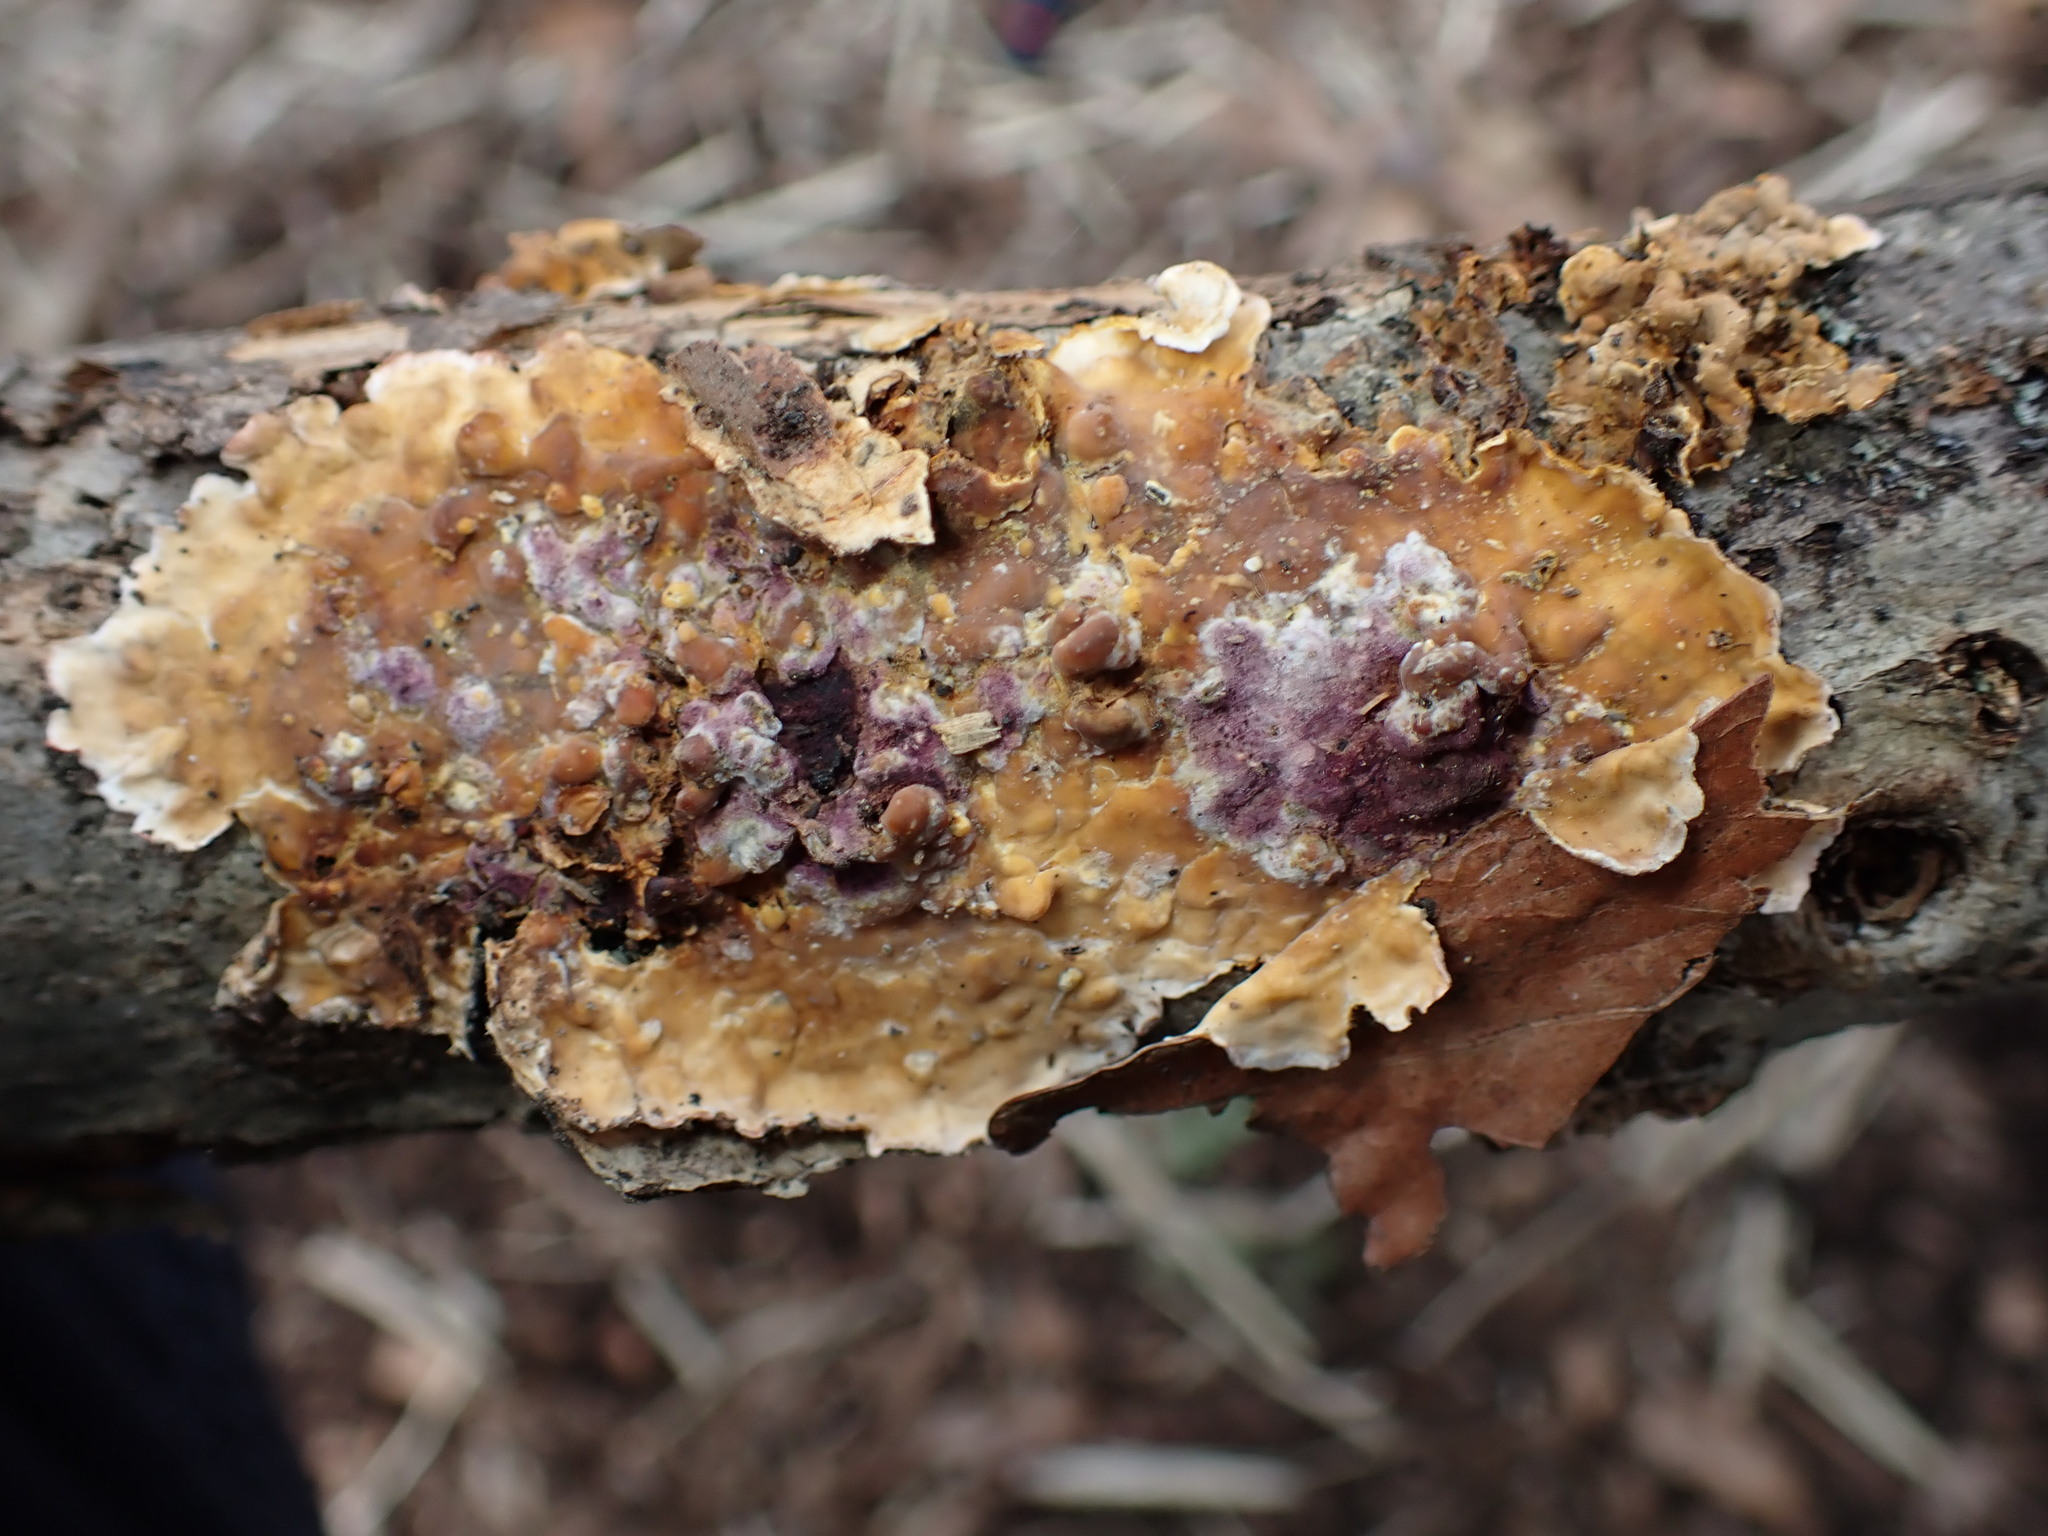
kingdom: Fungi
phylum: Ascomycota
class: Sordariomycetes
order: Hypocreales
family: Hypocreaceae
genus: Sphaerostilbella
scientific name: Sphaerostilbella berkeleyana
